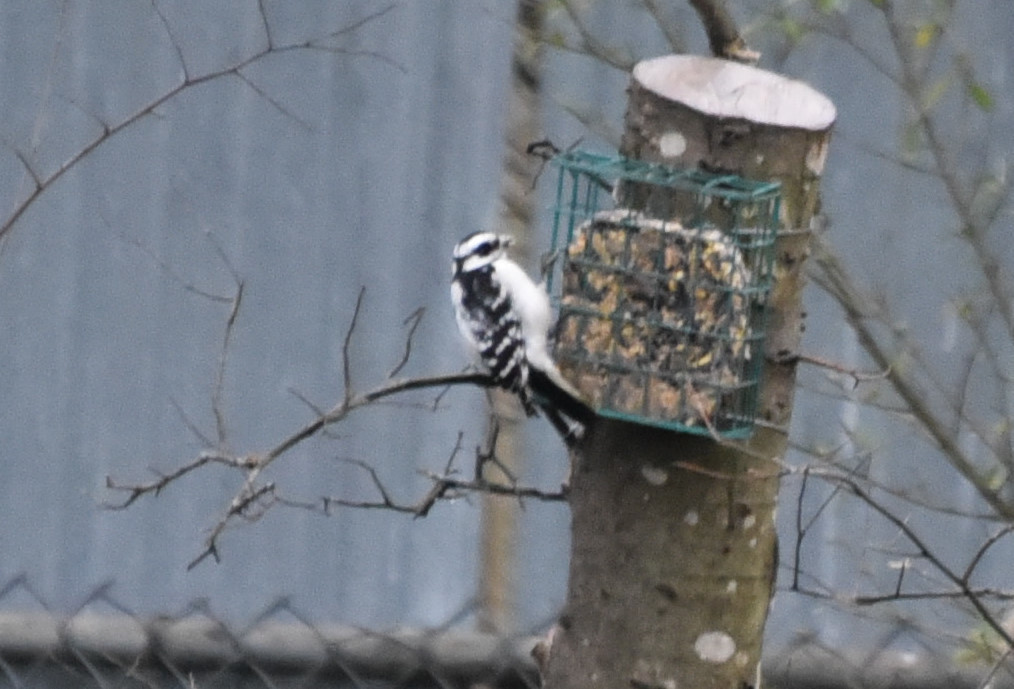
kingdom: Animalia
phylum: Chordata
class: Aves
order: Piciformes
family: Picidae
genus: Dryobates
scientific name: Dryobates pubescens
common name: Downy woodpecker
